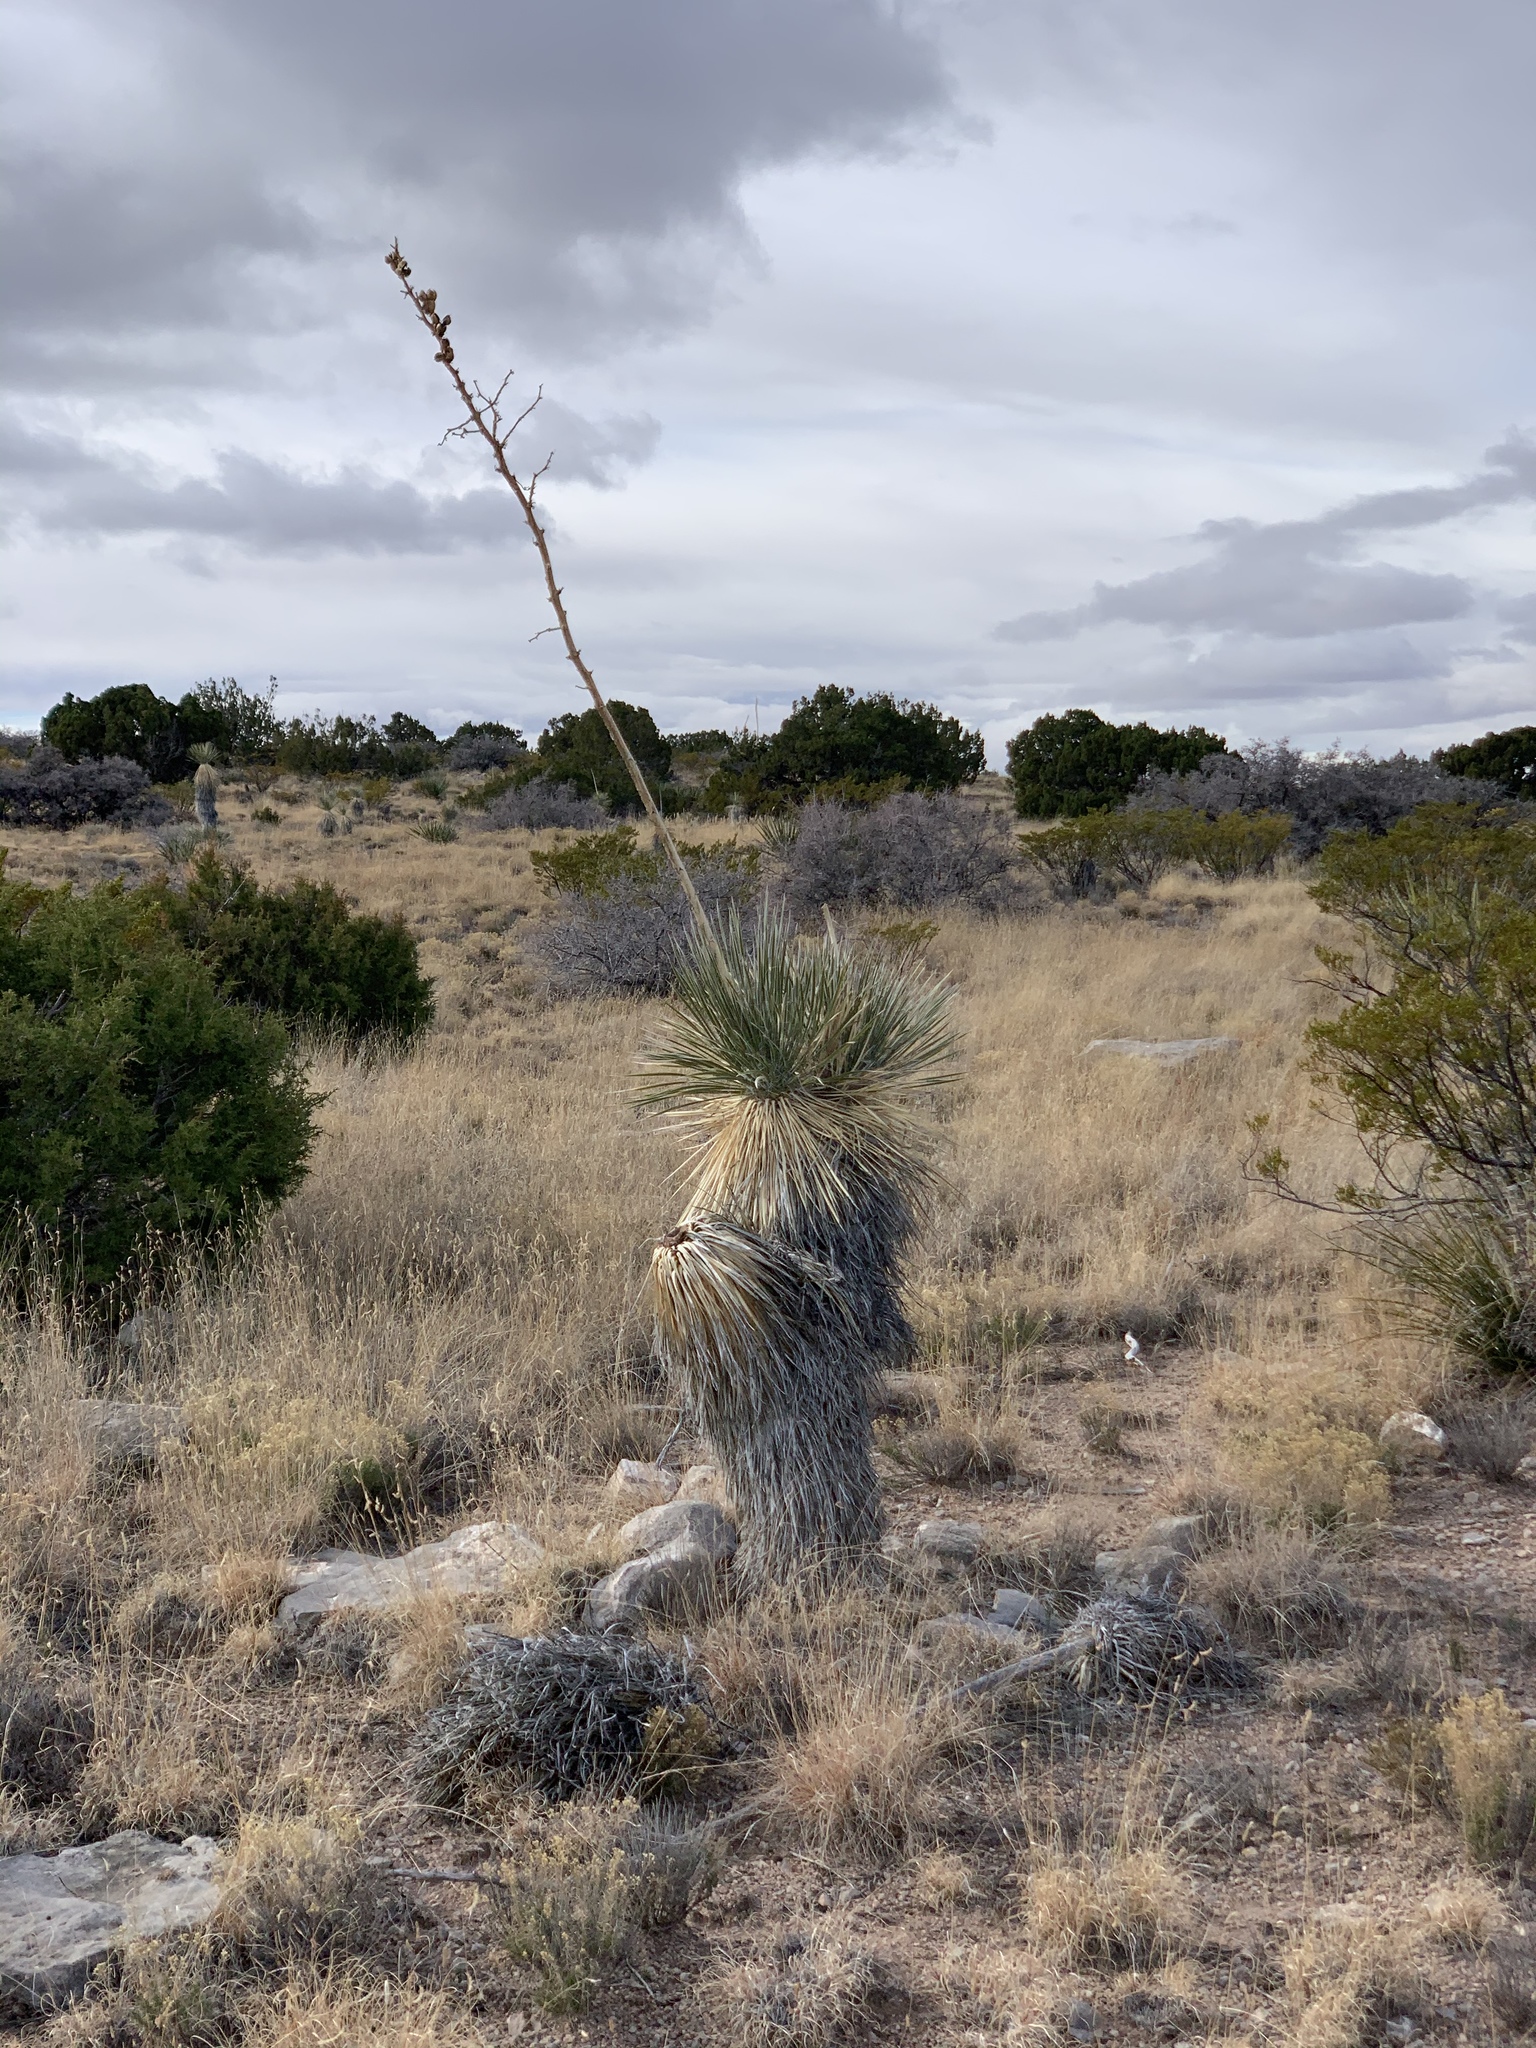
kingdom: Plantae
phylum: Tracheophyta
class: Liliopsida
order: Asparagales
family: Asparagaceae
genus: Yucca
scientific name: Yucca elata
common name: Palmella
